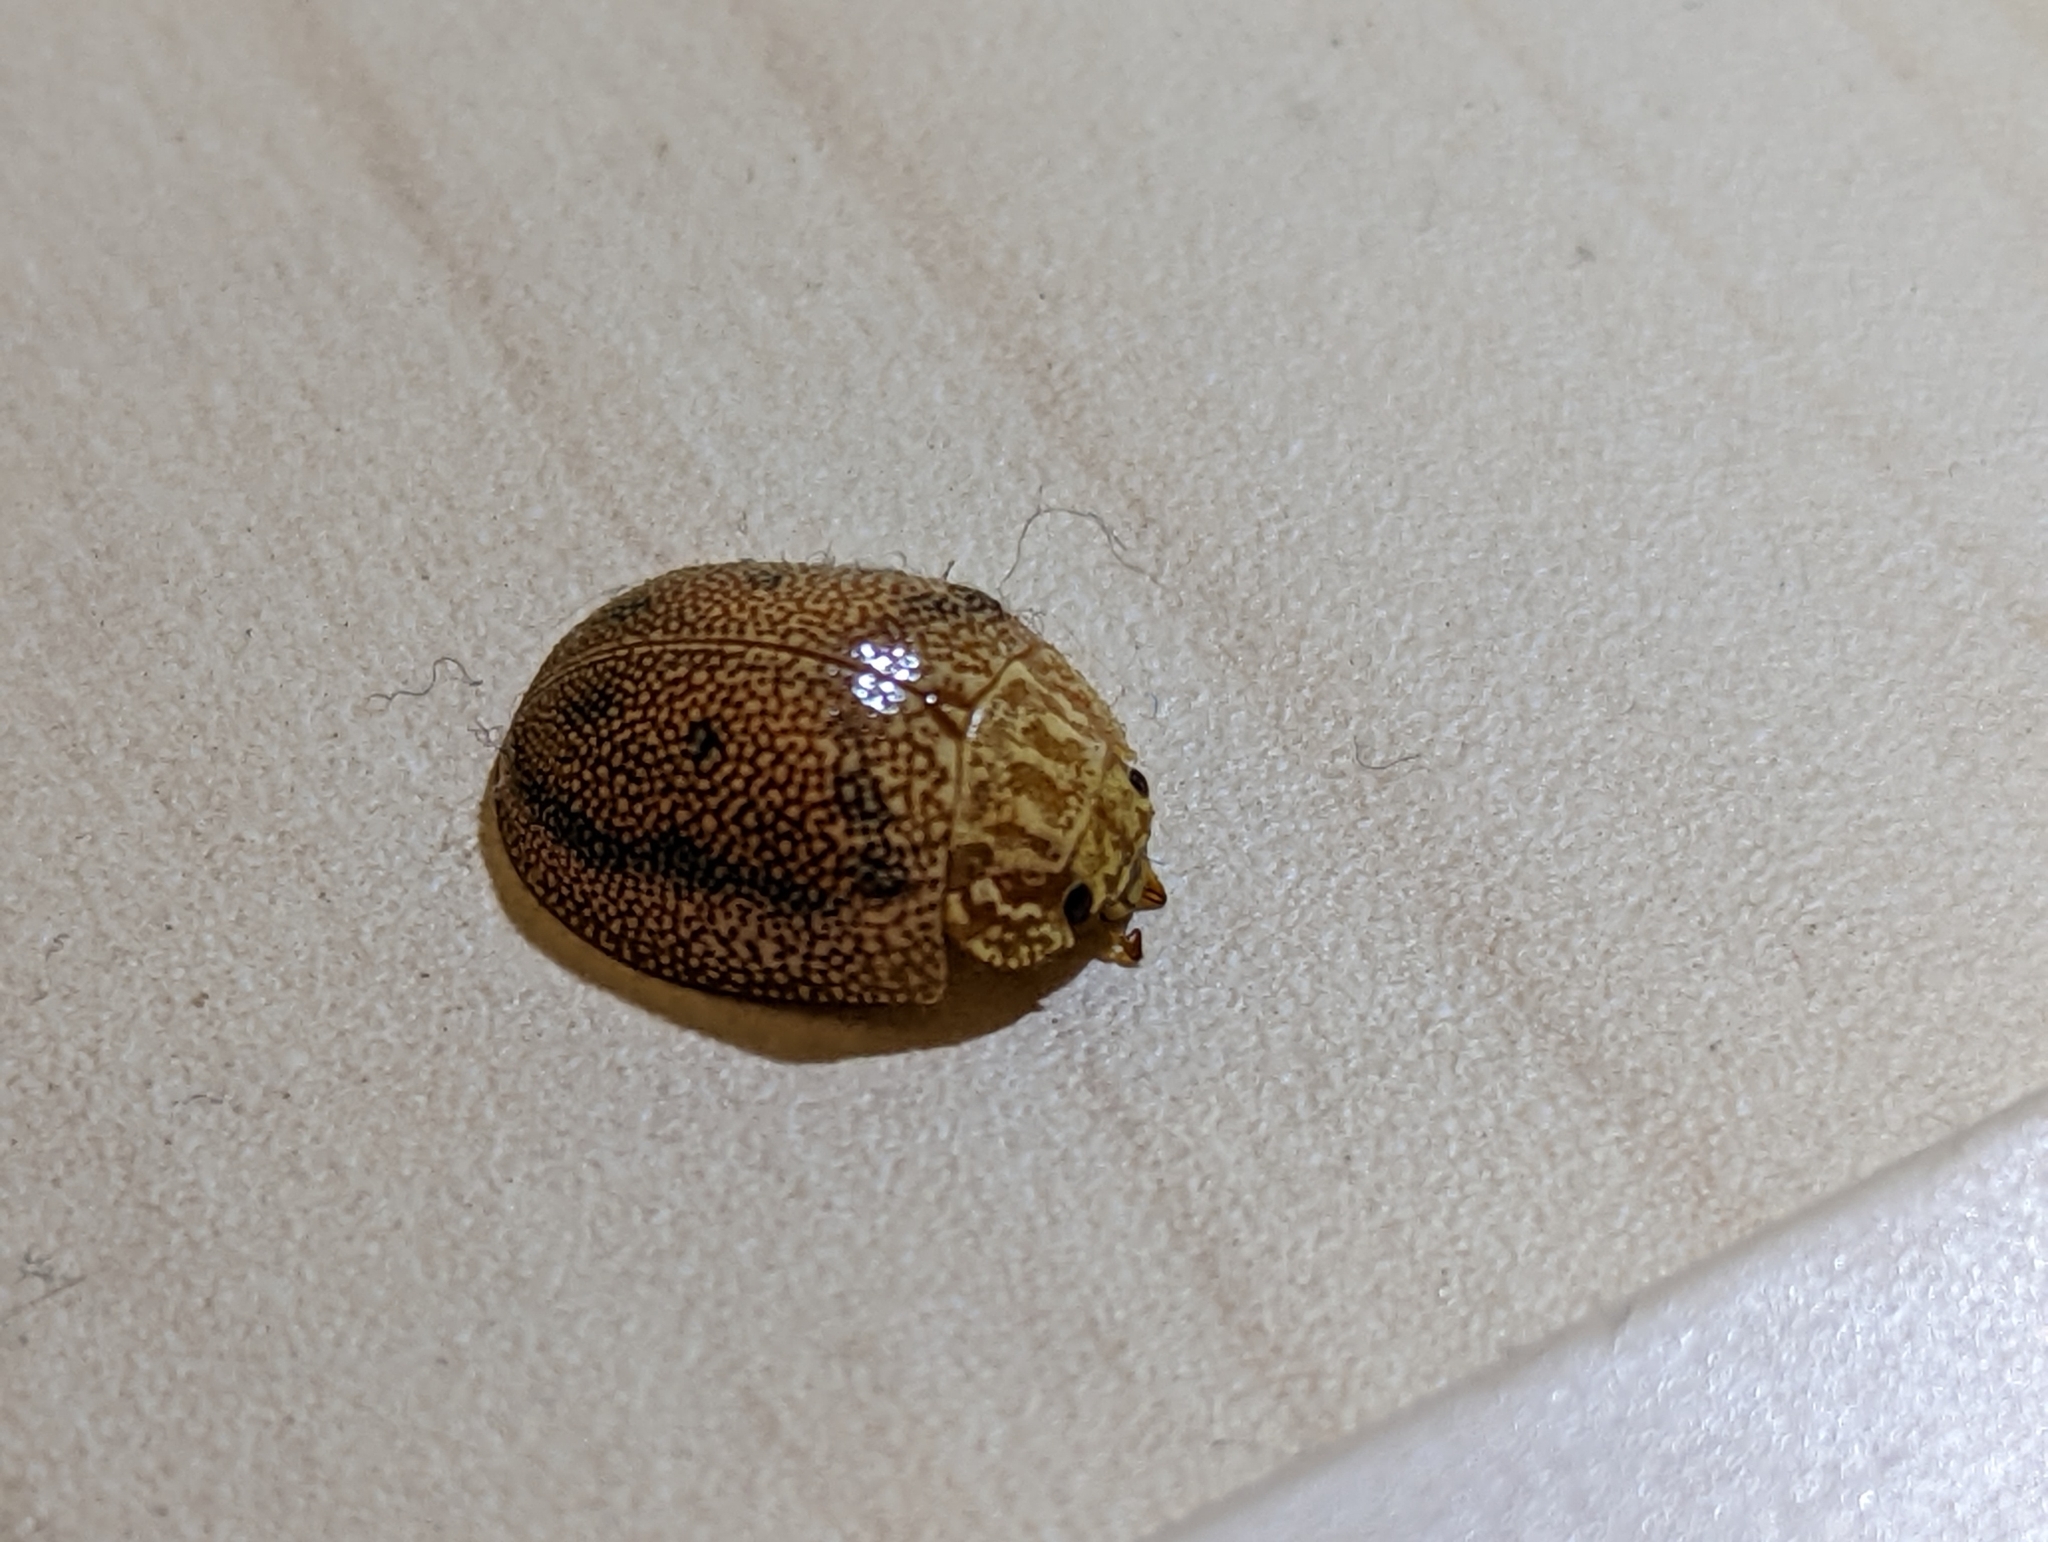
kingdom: Animalia
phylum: Arthropoda
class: Insecta
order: Coleoptera
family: Chrysomelidae
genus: Paropsis
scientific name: Paropsis
